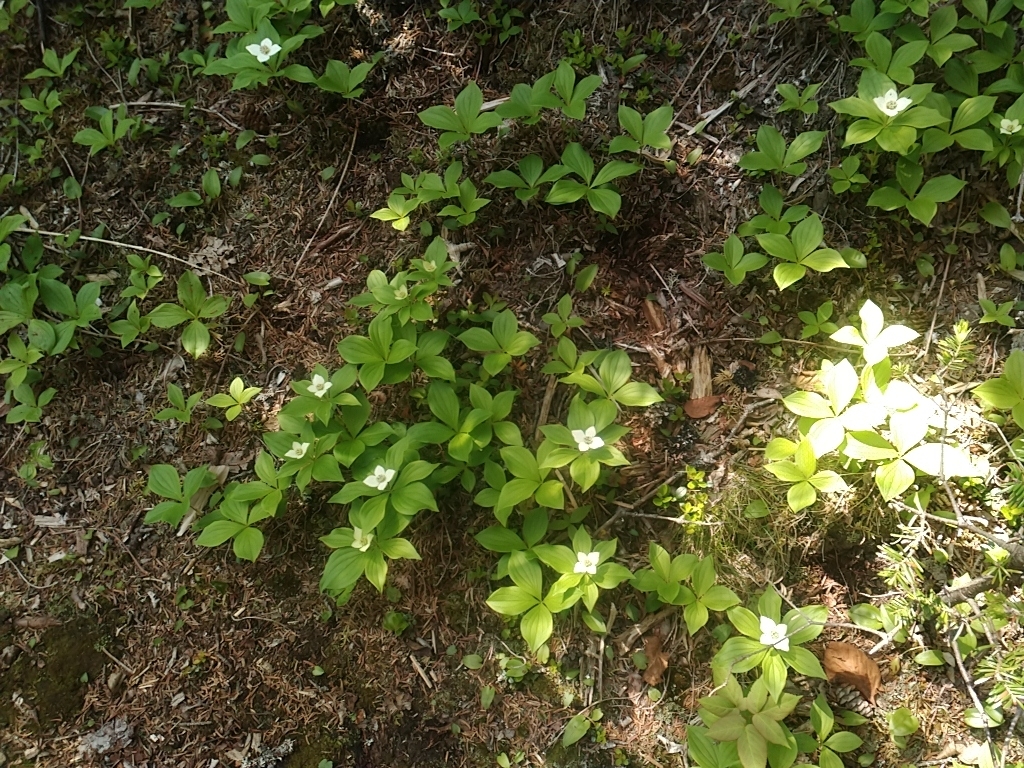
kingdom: Plantae
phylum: Tracheophyta
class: Magnoliopsida
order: Cornales
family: Cornaceae
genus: Cornus
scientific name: Cornus canadensis
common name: Creeping dogwood
